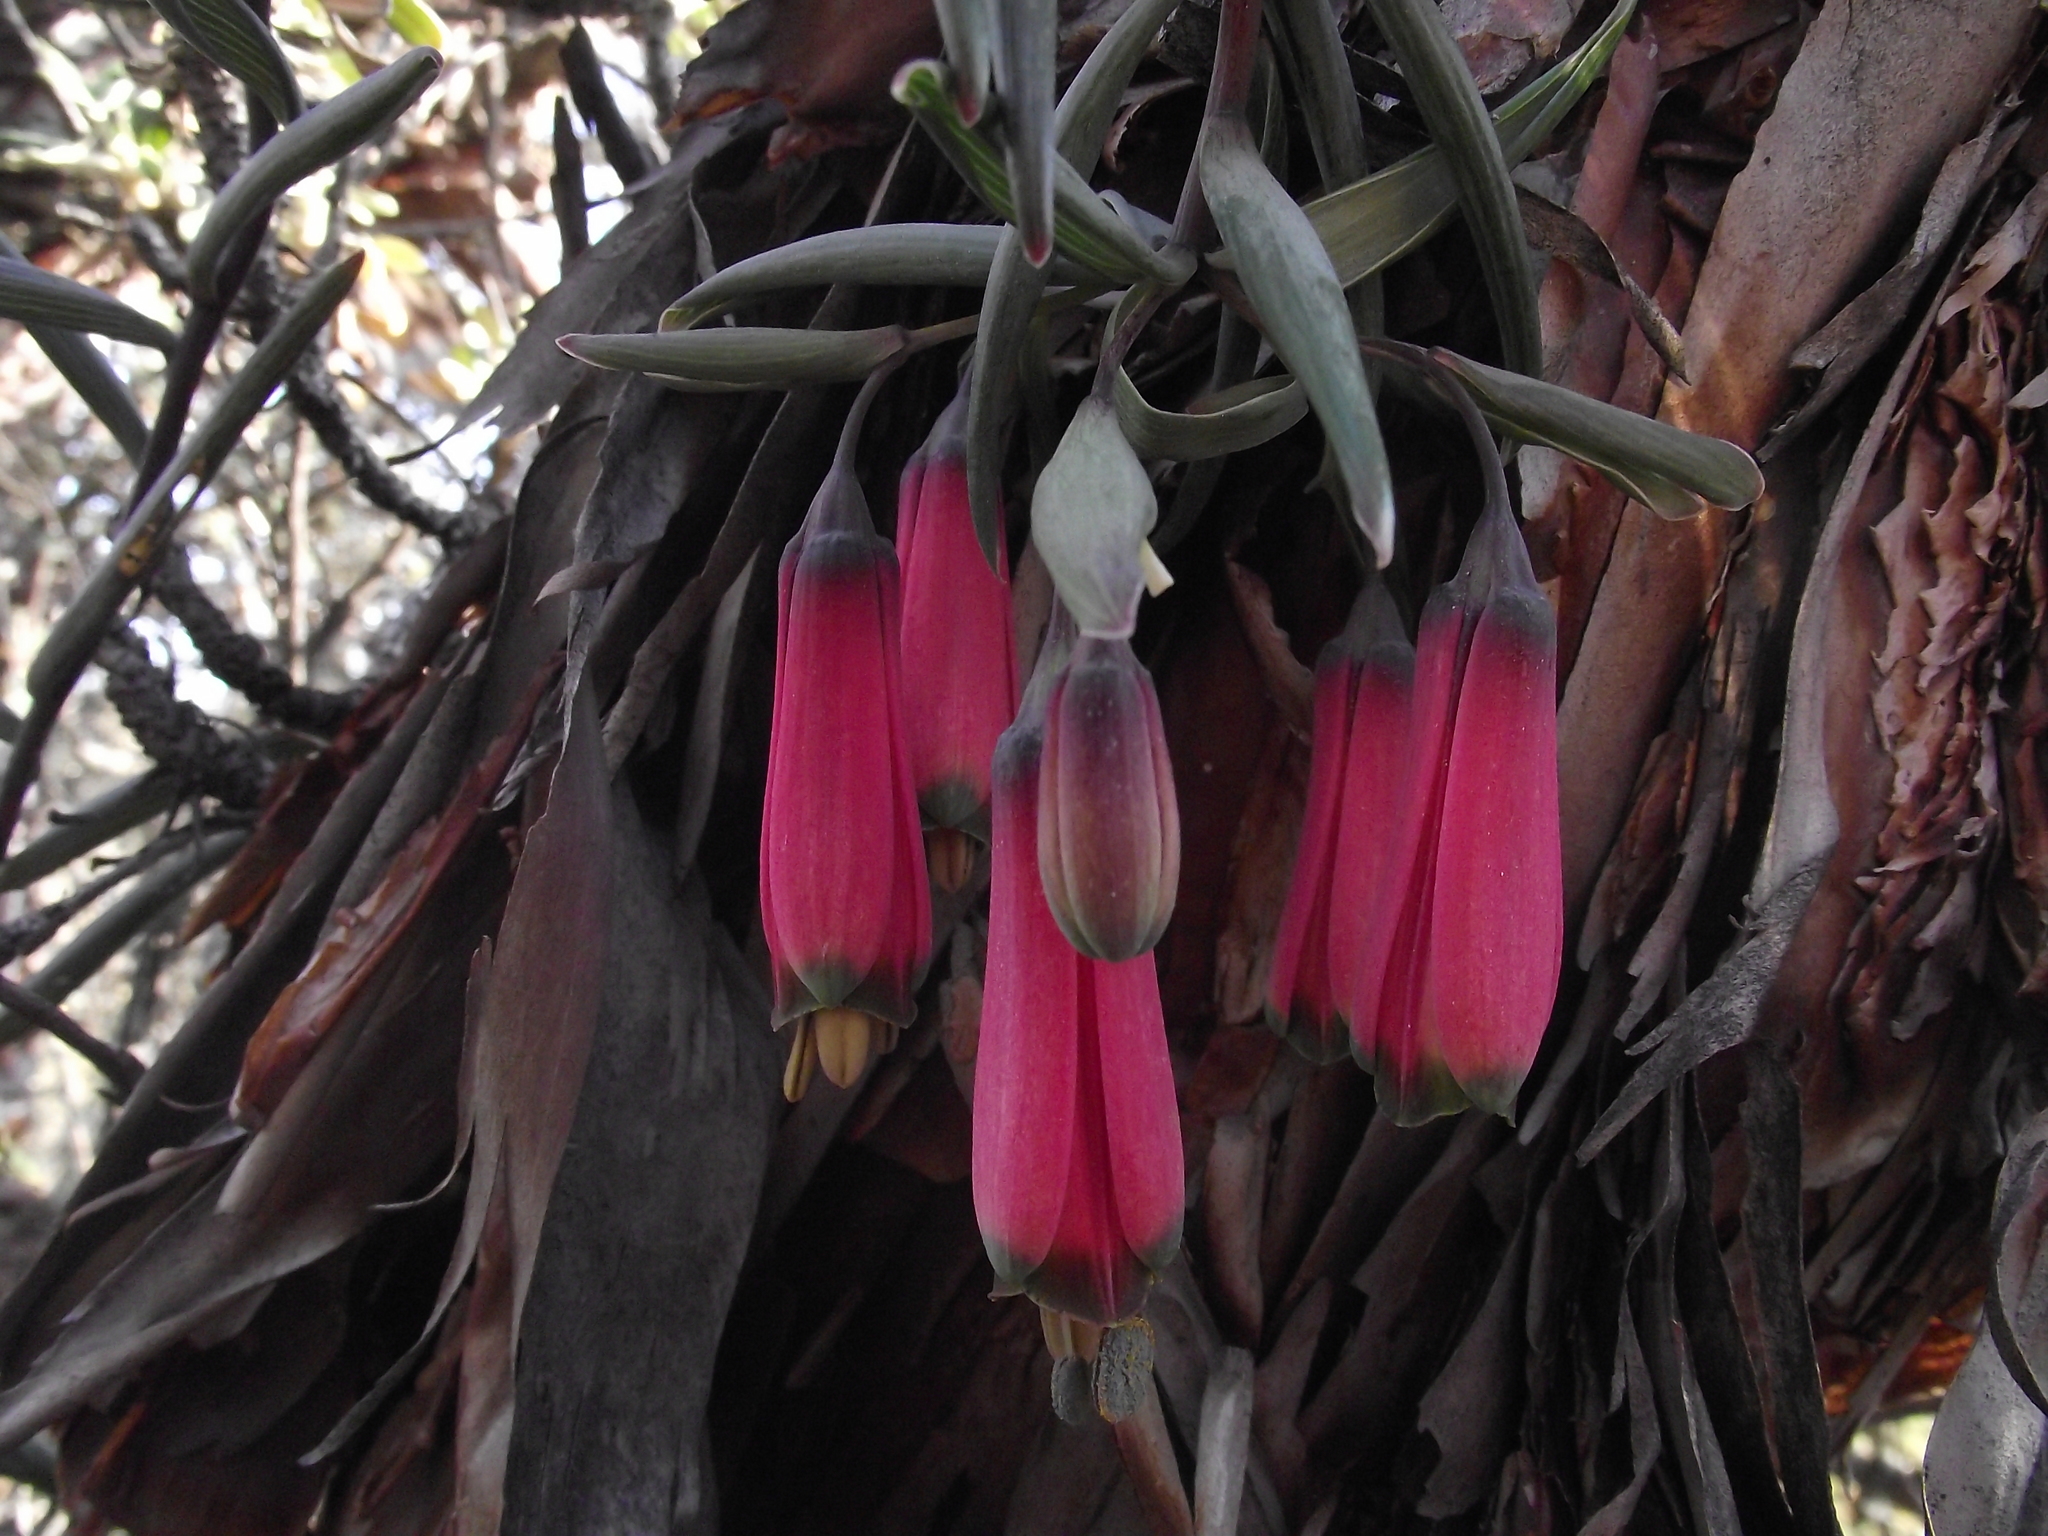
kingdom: Plantae
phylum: Tracheophyta
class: Liliopsida
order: Liliales
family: Alstroemeriaceae
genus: Bomarea
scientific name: Bomarea dulcis
